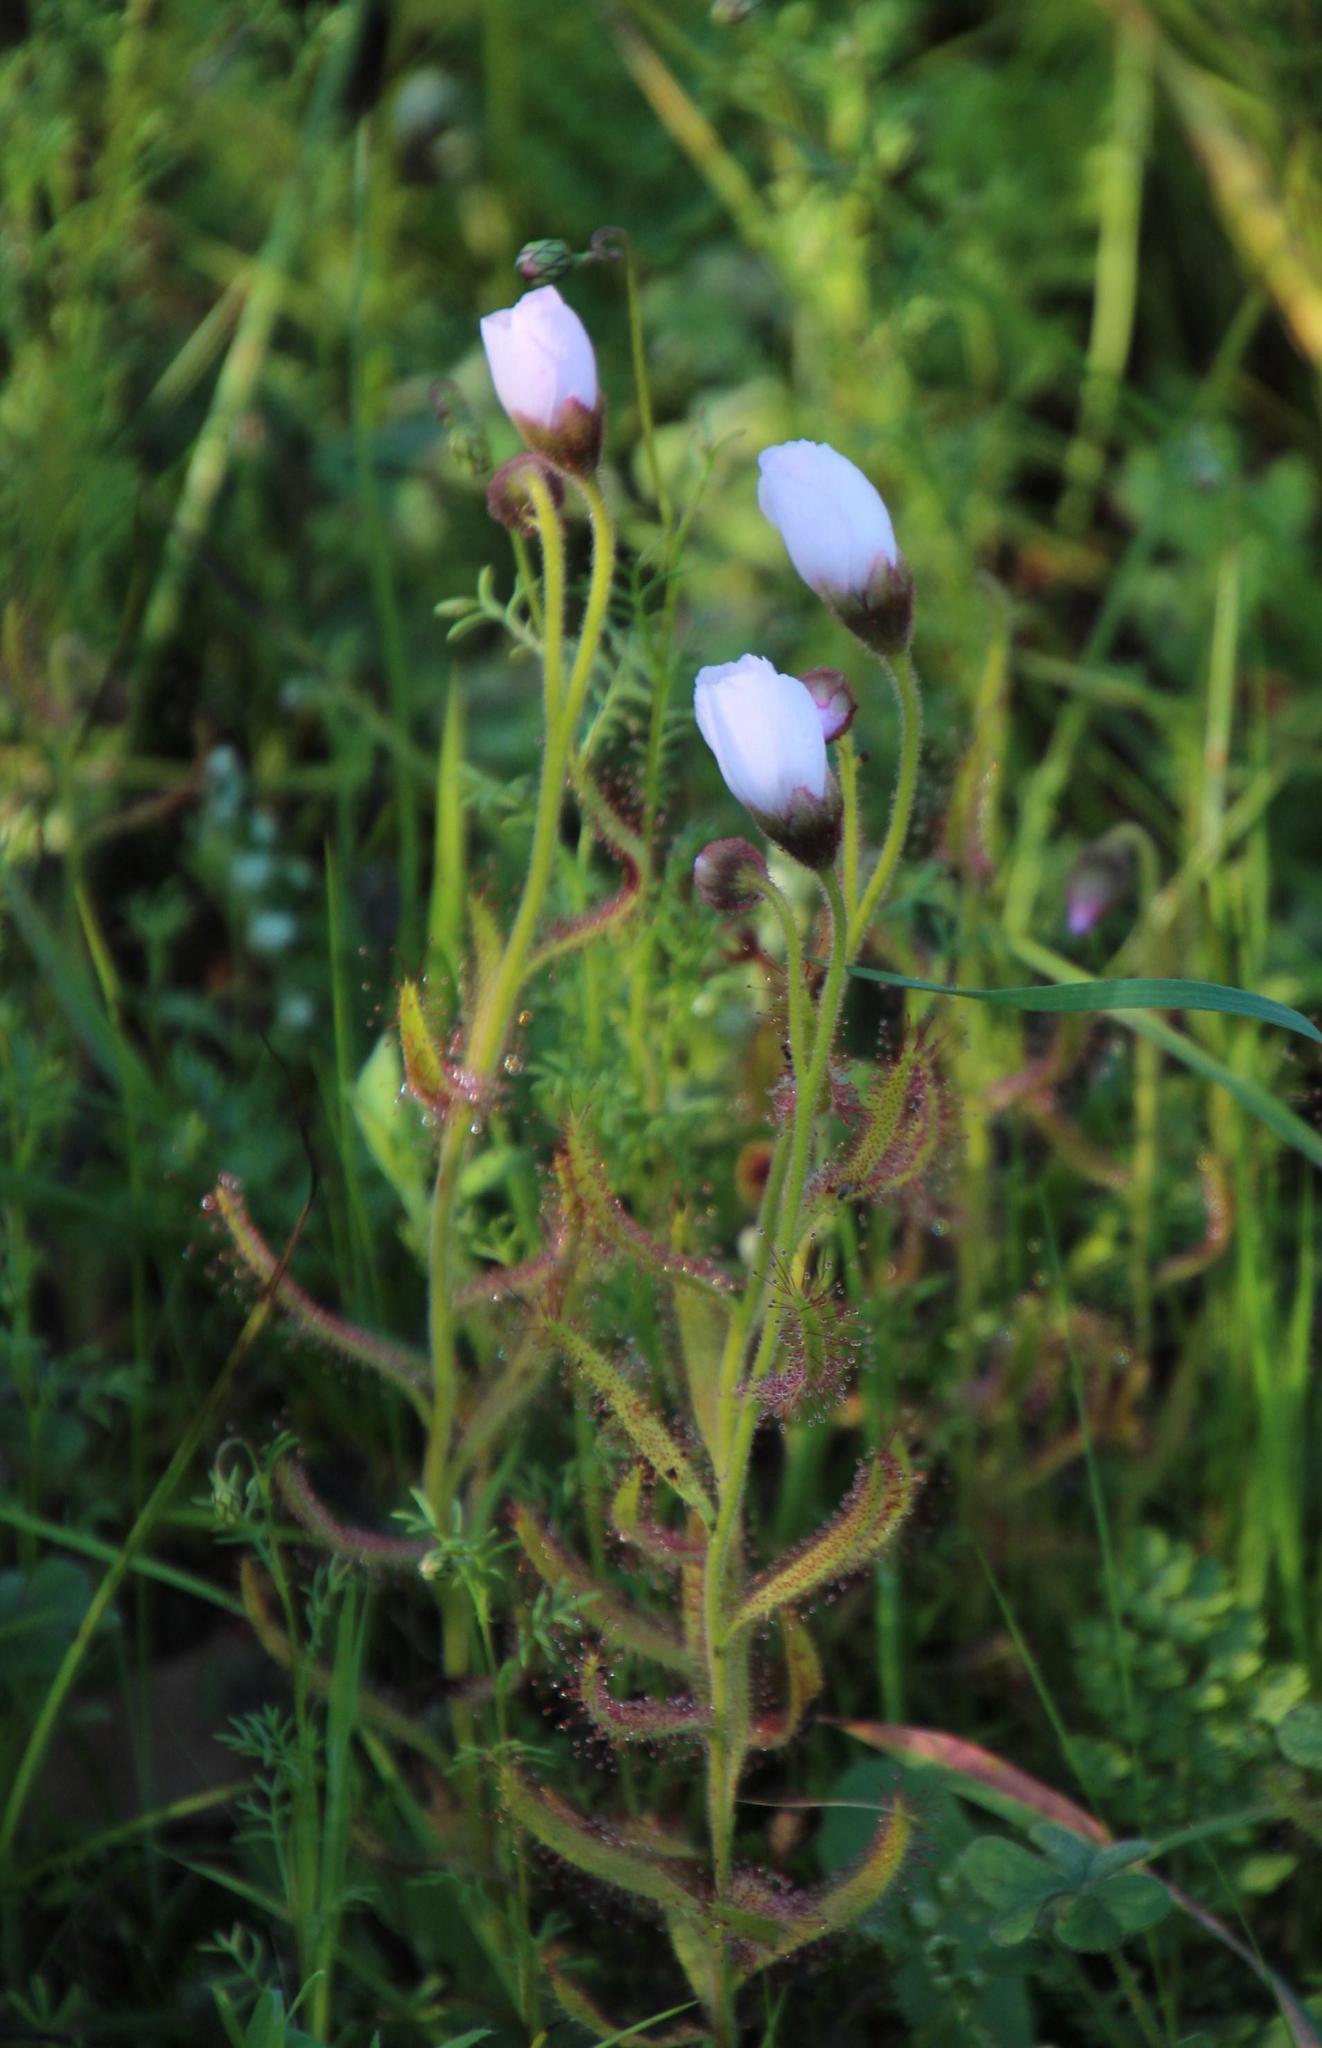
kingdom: Plantae
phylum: Tracheophyta
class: Magnoliopsida
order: Caryophyllales
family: Droseraceae
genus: Drosera
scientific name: Drosera cistiflora
